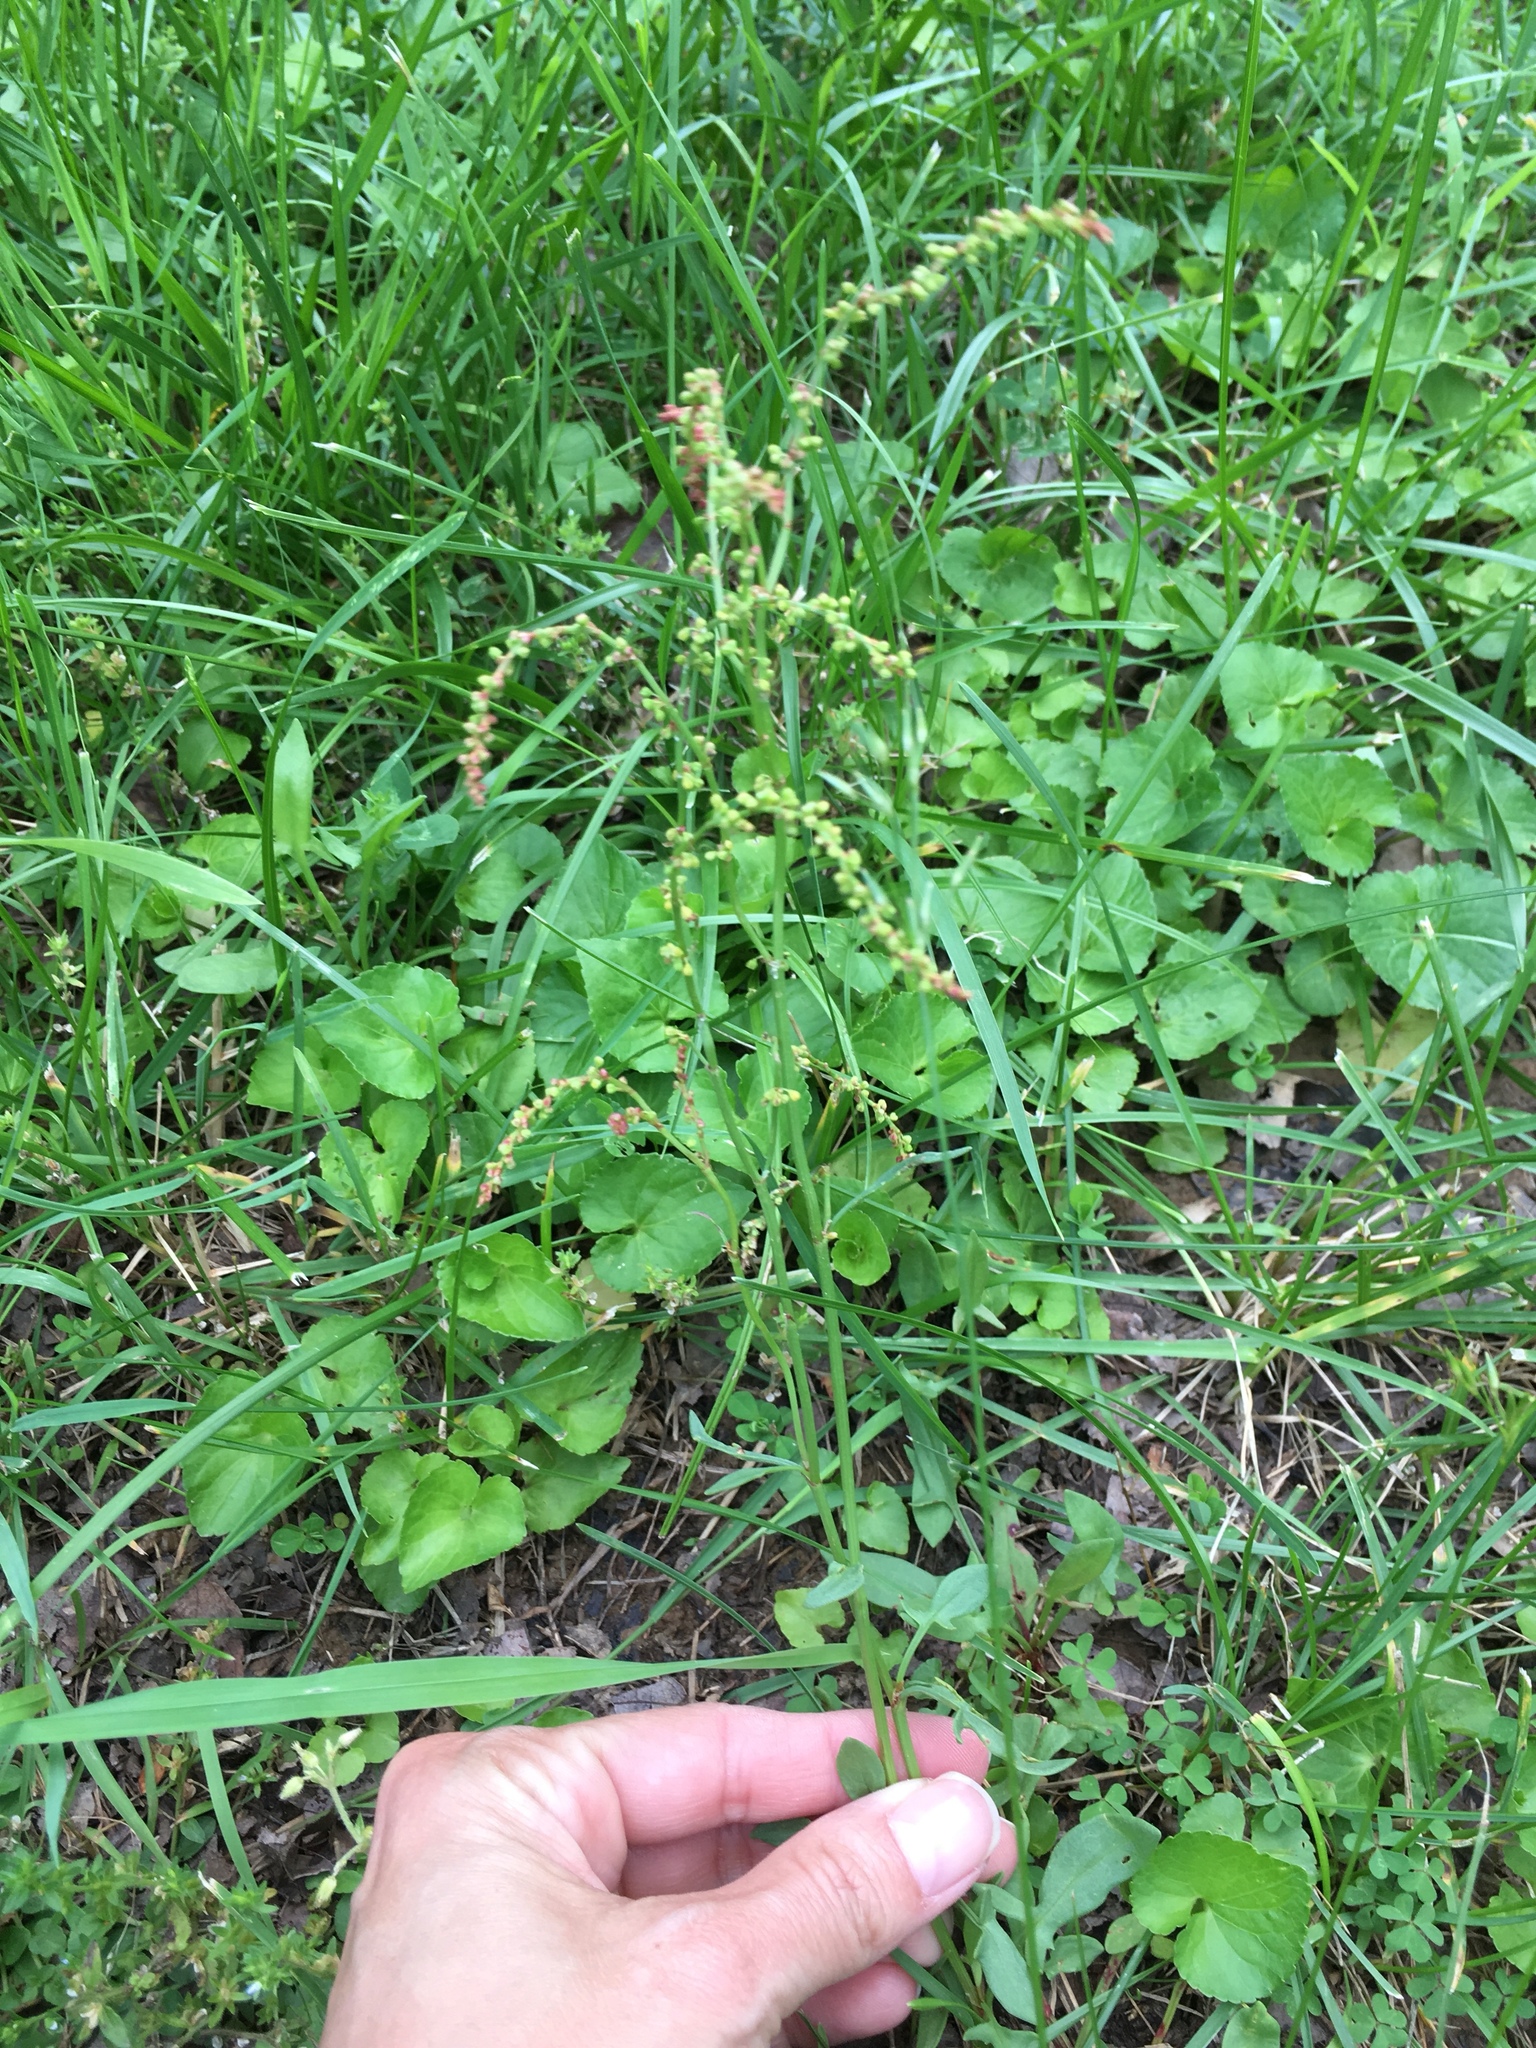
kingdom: Plantae
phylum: Tracheophyta
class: Magnoliopsida
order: Caryophyllales
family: Polygonaceae
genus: Rumex
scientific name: Rumex acetosella
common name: Common sheep sorrel
